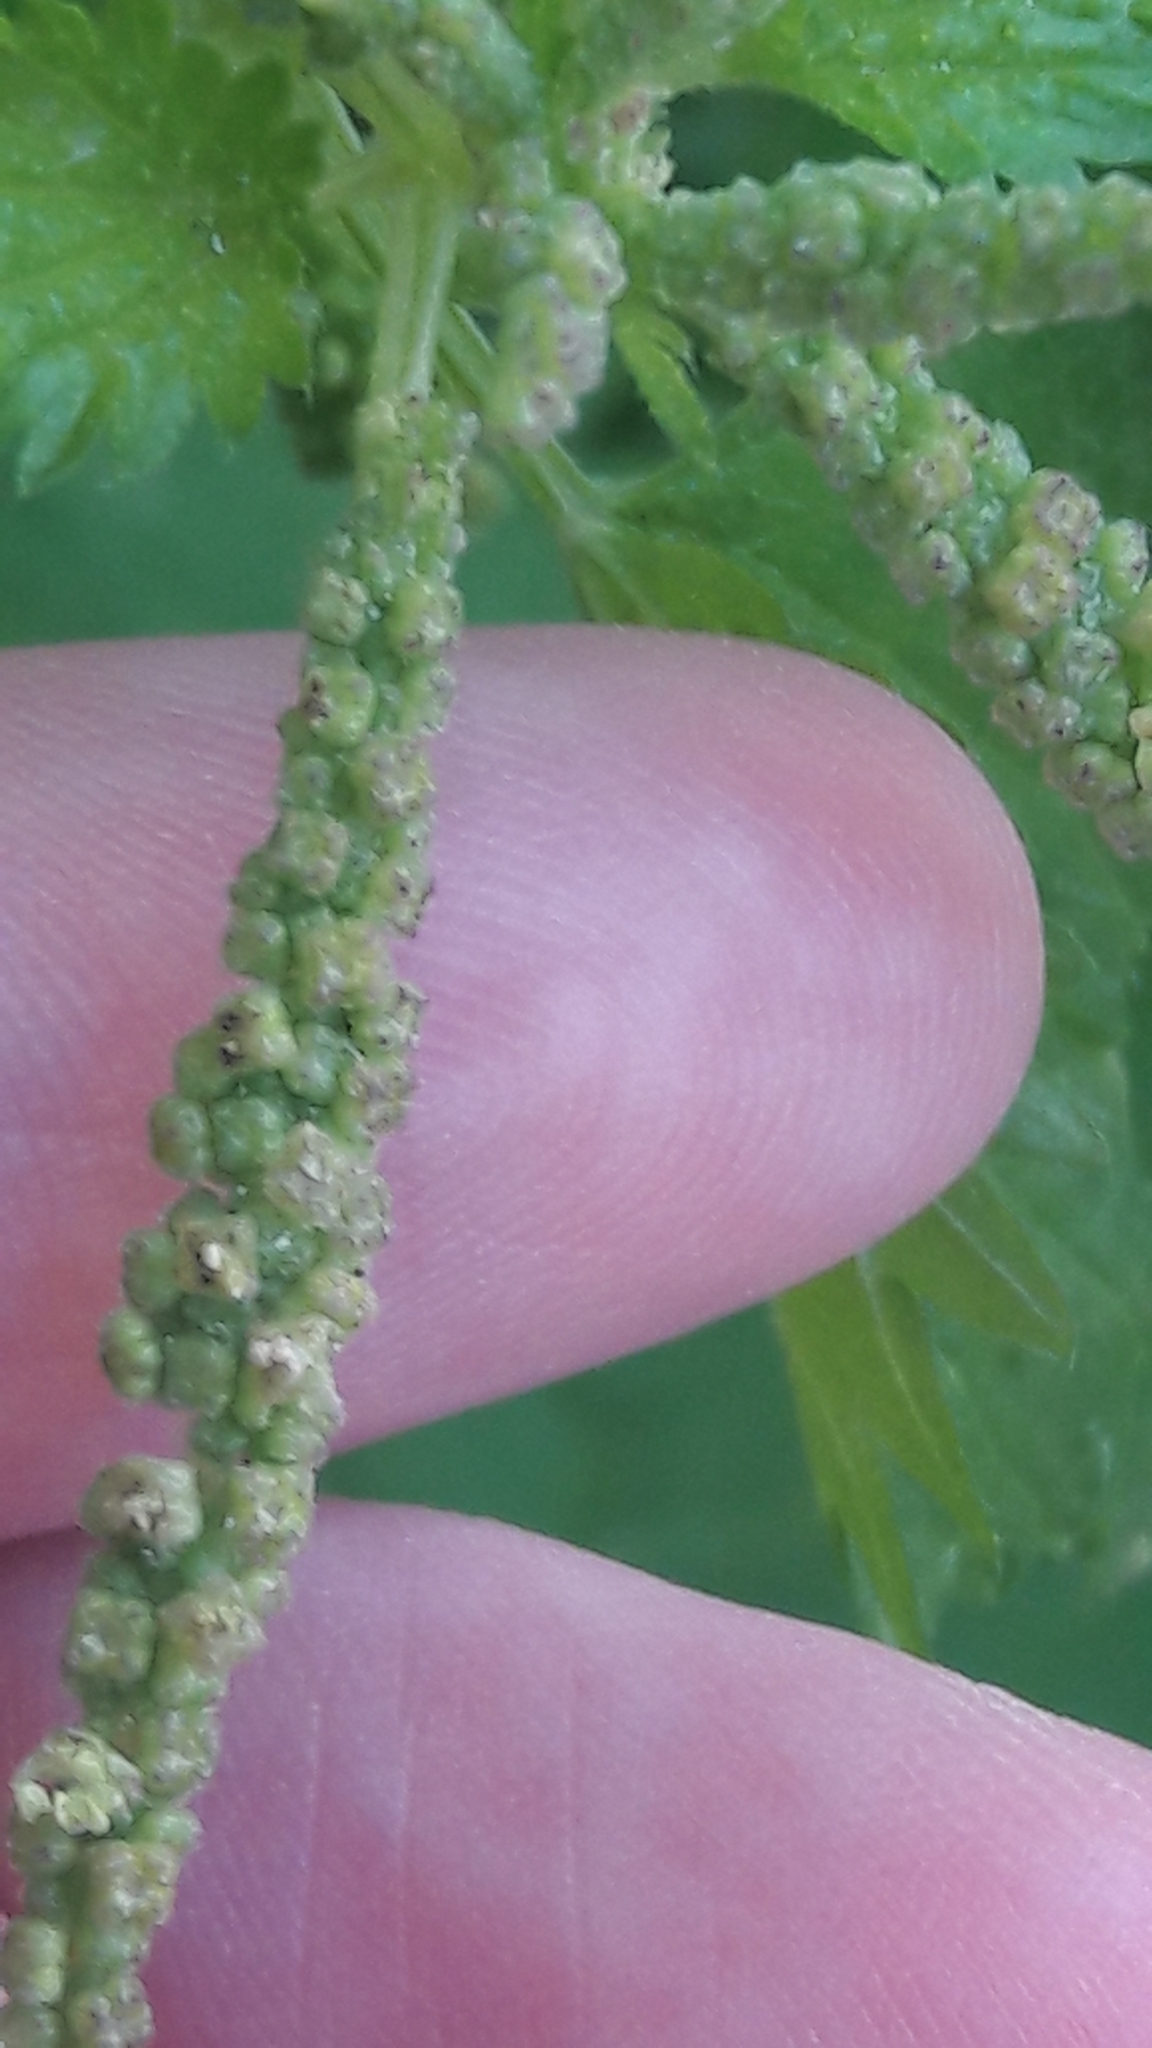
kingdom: Plantae
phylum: Tracheophyta
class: Magnoliopsida
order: Rosales
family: Urticaceae
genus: Urtica
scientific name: Urtica membranacea
